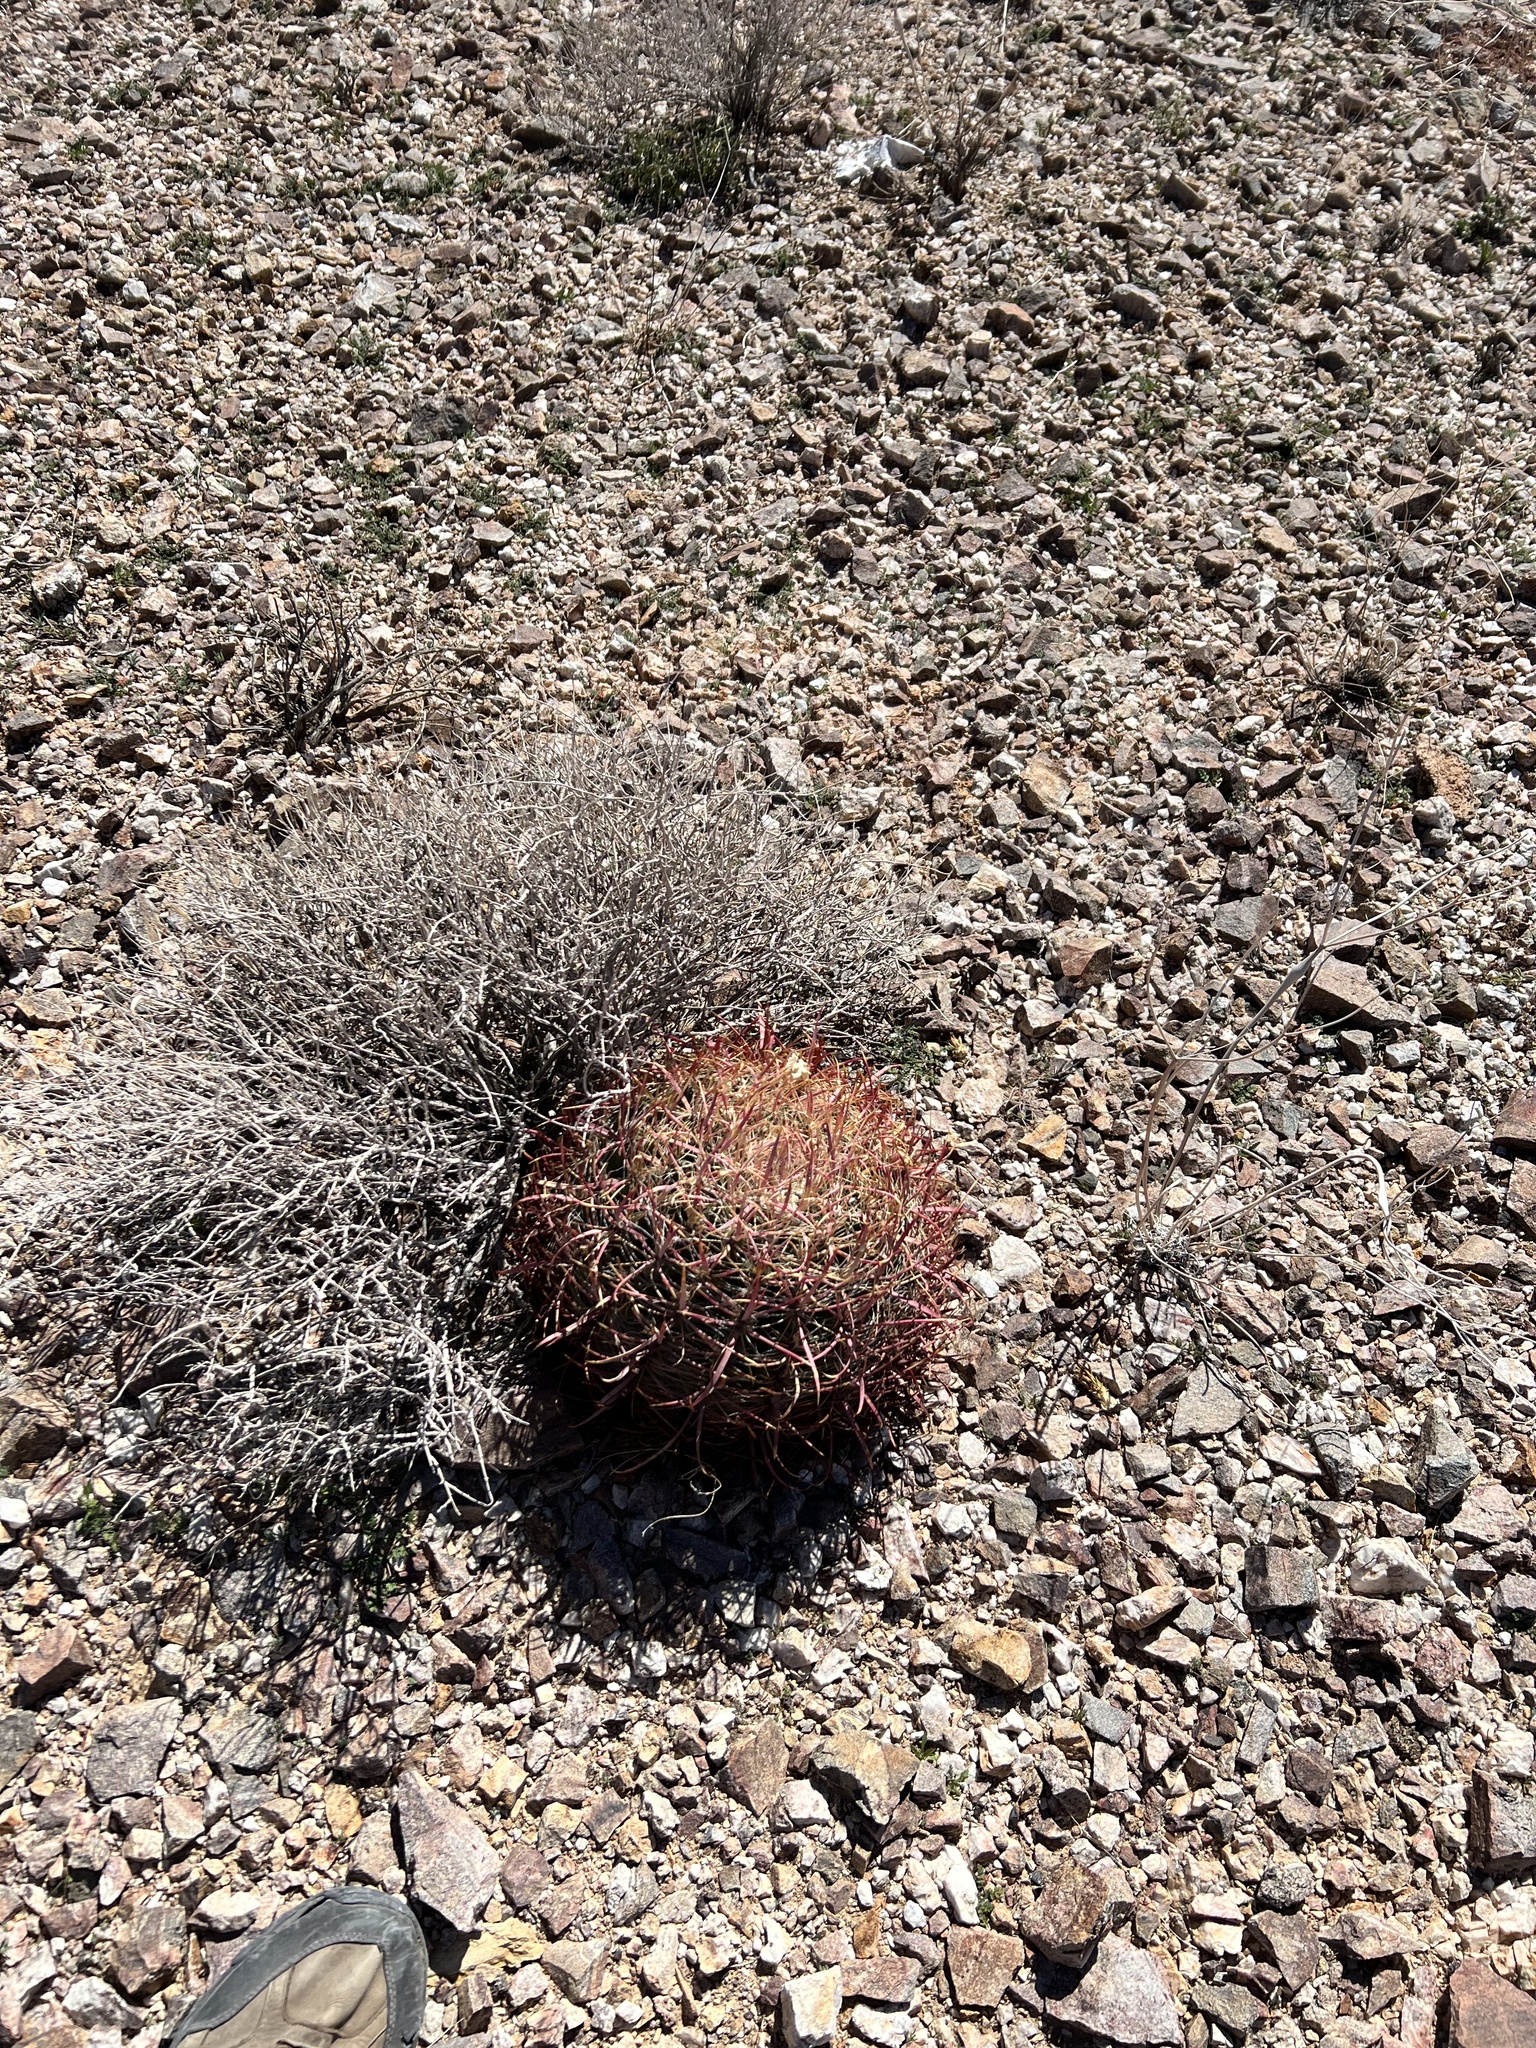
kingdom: Plantae
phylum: Tracheophyta
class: Magnoliopsida
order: Caryophyllales
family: Cactaceae
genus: Ferocactus
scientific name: Ferocactus cylindraceus
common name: California barrel cactus
